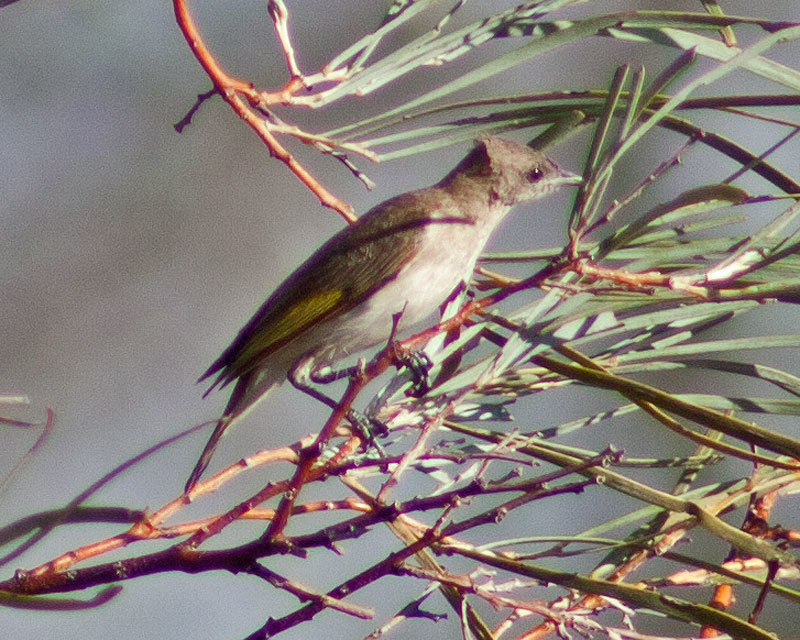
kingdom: Animalia
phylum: Chordata
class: Aves
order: Passeriformes
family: Meliphagidae
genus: Conopophila
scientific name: Conopophila rufogularis
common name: Rufous-throated honeyeater
